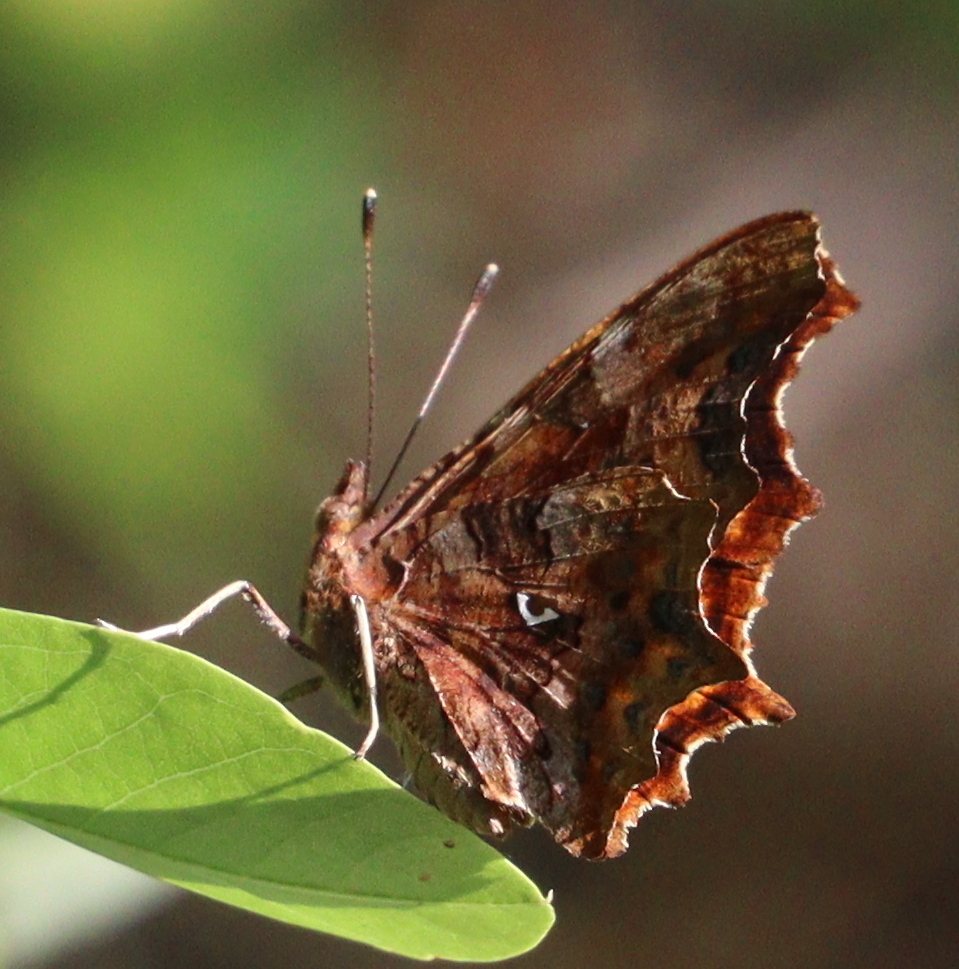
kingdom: Animalia
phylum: Arthropoda
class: Insecta
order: Lepidoptera
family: Nymphalidae
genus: Polygonia
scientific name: Polygonia c-album
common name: Comma
